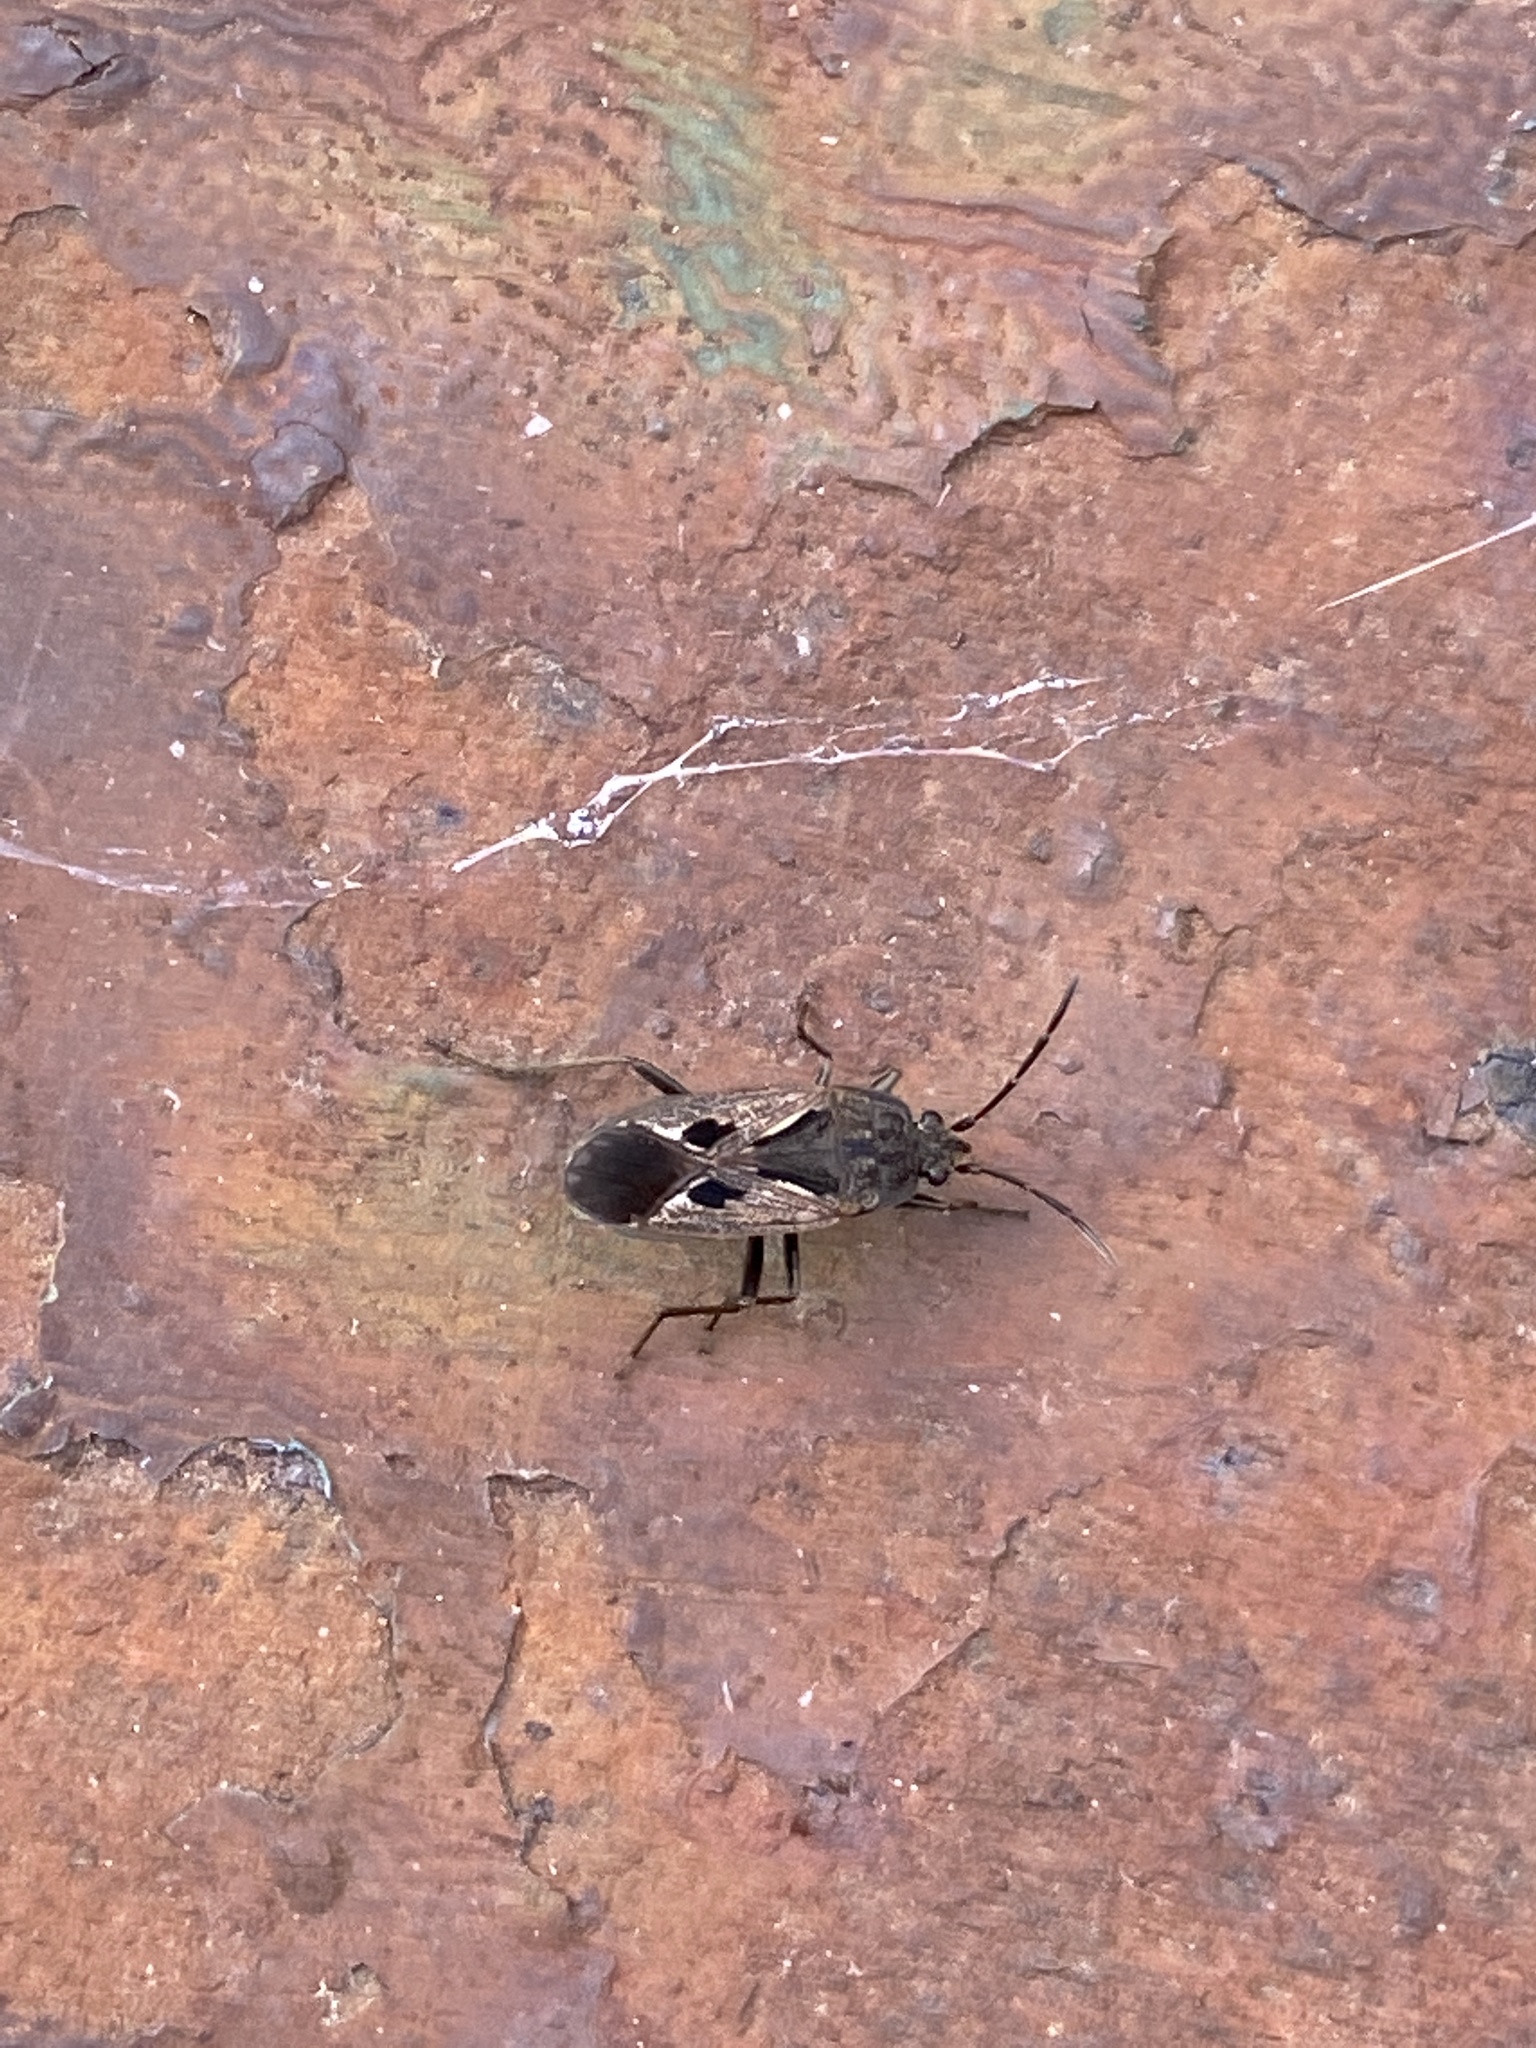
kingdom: Animalia
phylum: Arthropoda
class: Insecta
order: Hemiptera
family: Rhyparochromidae
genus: Rhyparochromus
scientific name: Rhyparochromus pini
